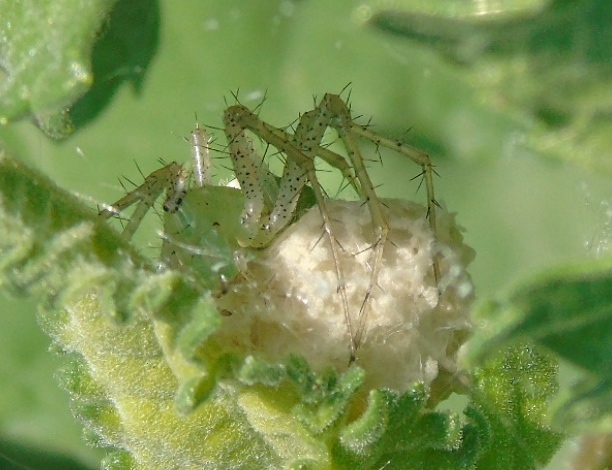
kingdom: Animalia
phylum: Arthropoda
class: Arachnida
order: Araneae
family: Oxyopidae
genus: Peucetia
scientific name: Peucetia viridans
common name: Lynx spiders
